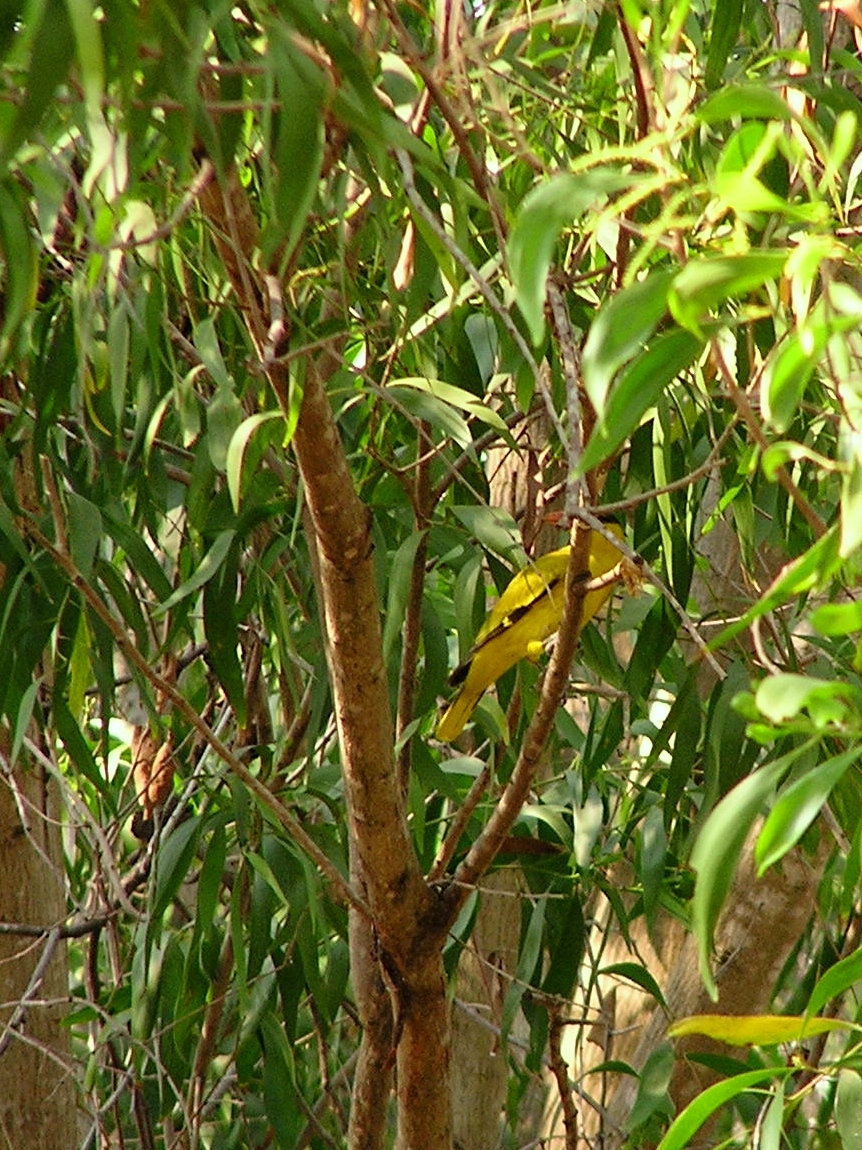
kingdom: Animalia
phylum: Chordata
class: Aves
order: Passeriformes
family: Oriolidae
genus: Oriolus
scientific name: Oriolus chinensis
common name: Black-naped oriole
